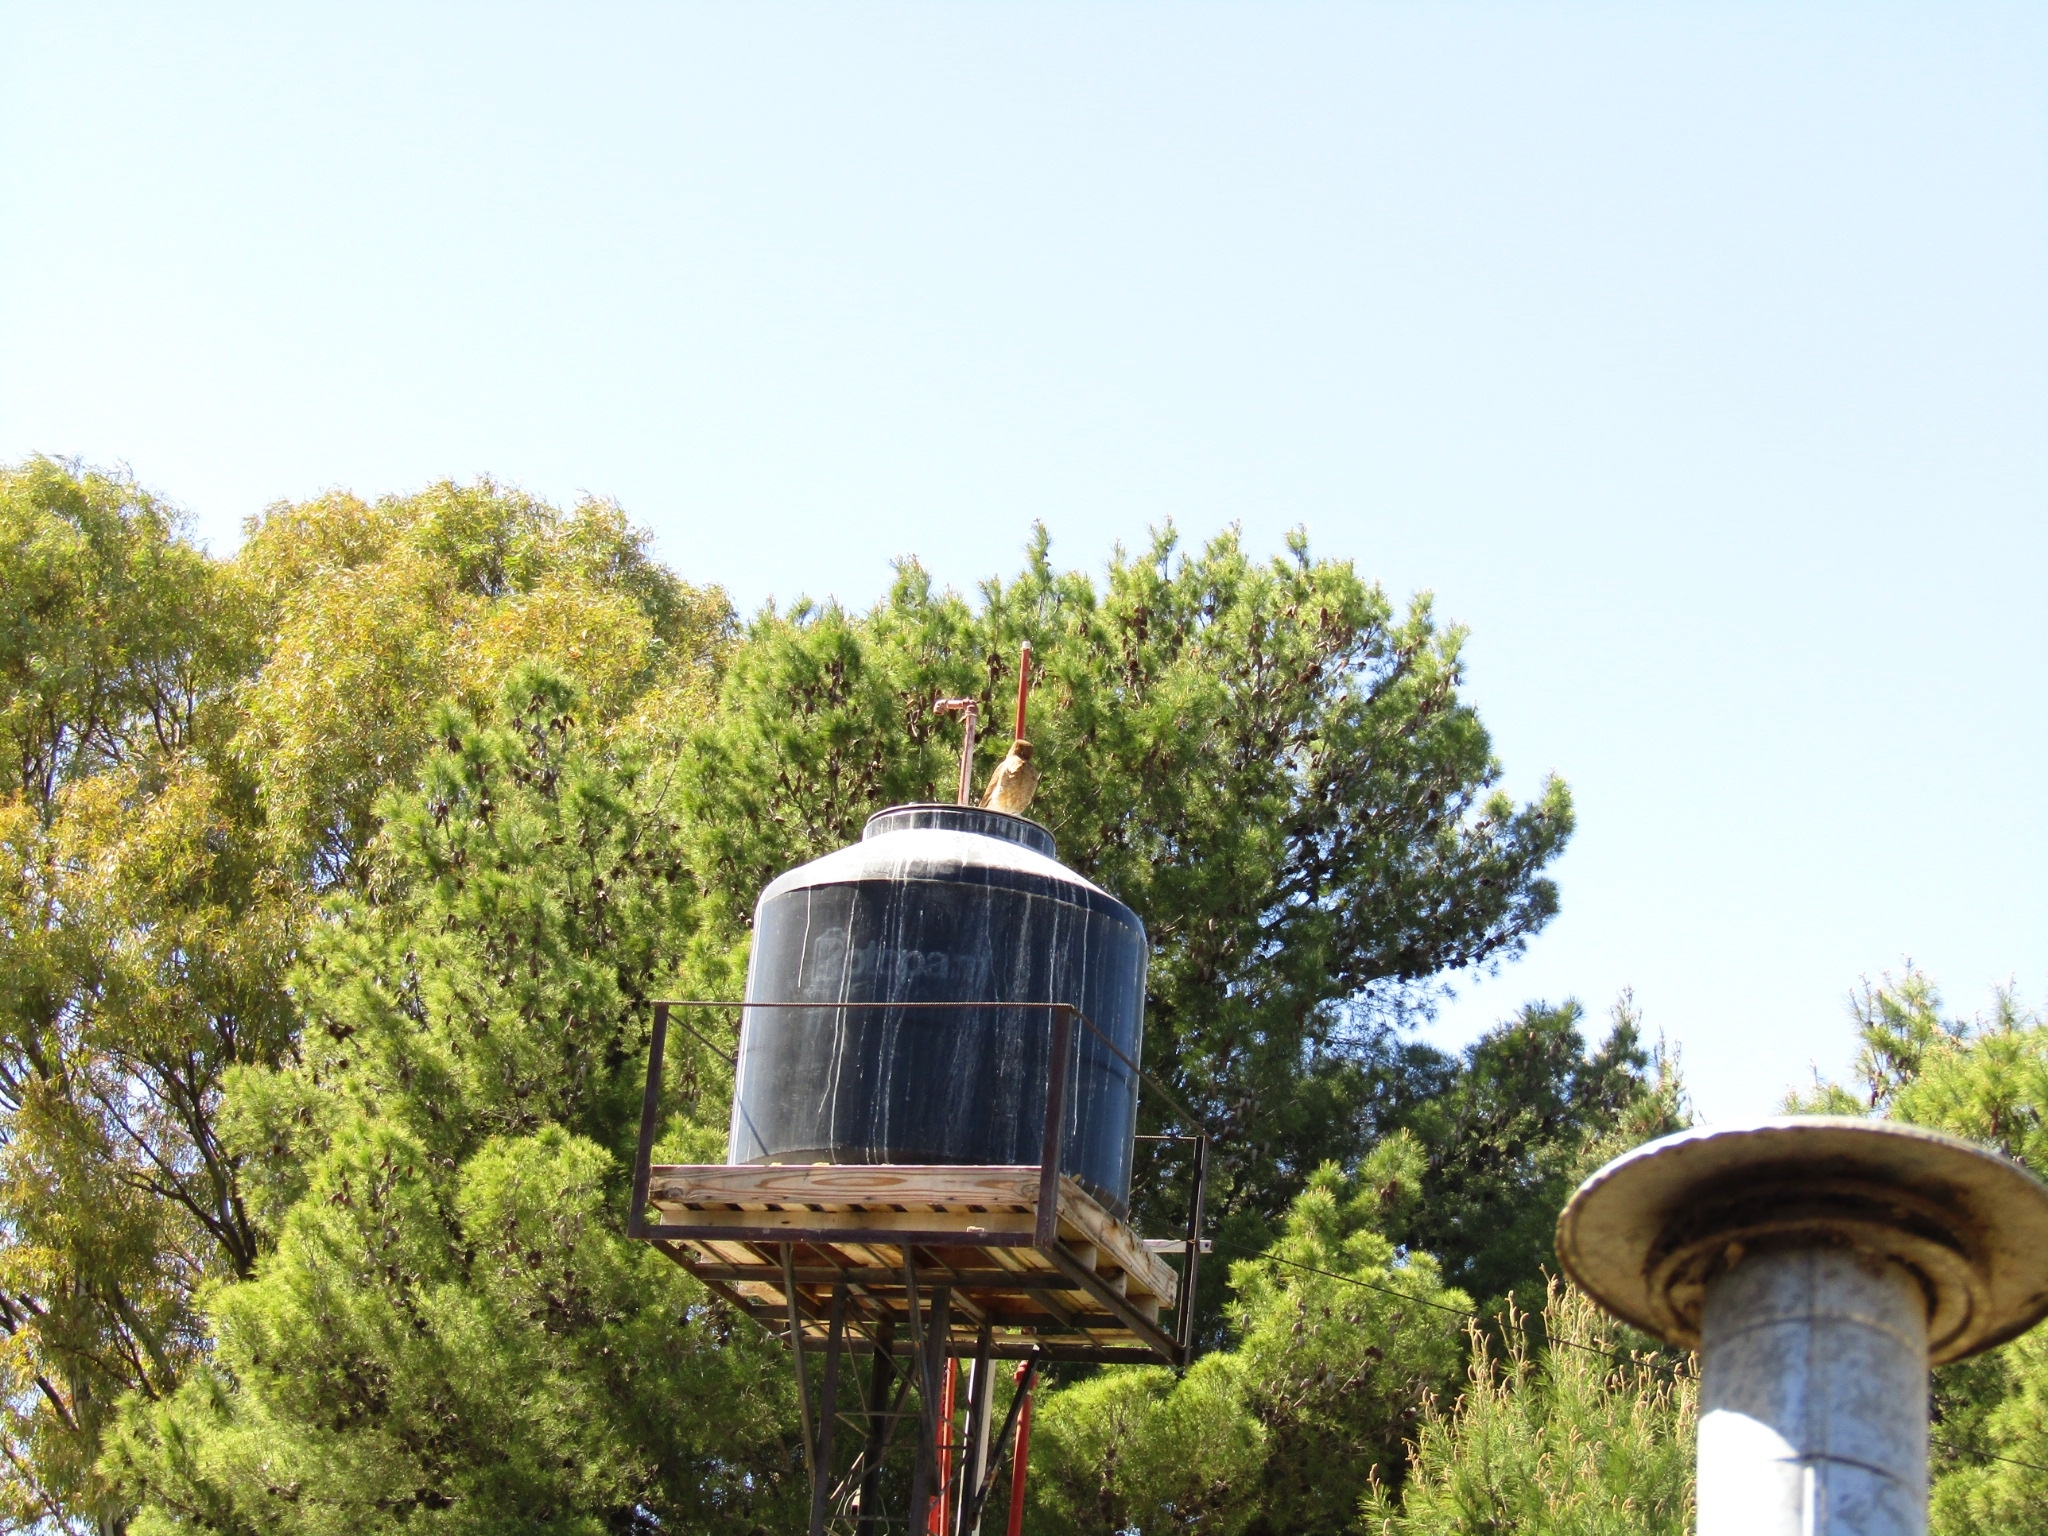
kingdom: Animalia
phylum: Chordata
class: Aves
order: Falconiformes
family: Falconidae
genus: Daptrius
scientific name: Daptrius
